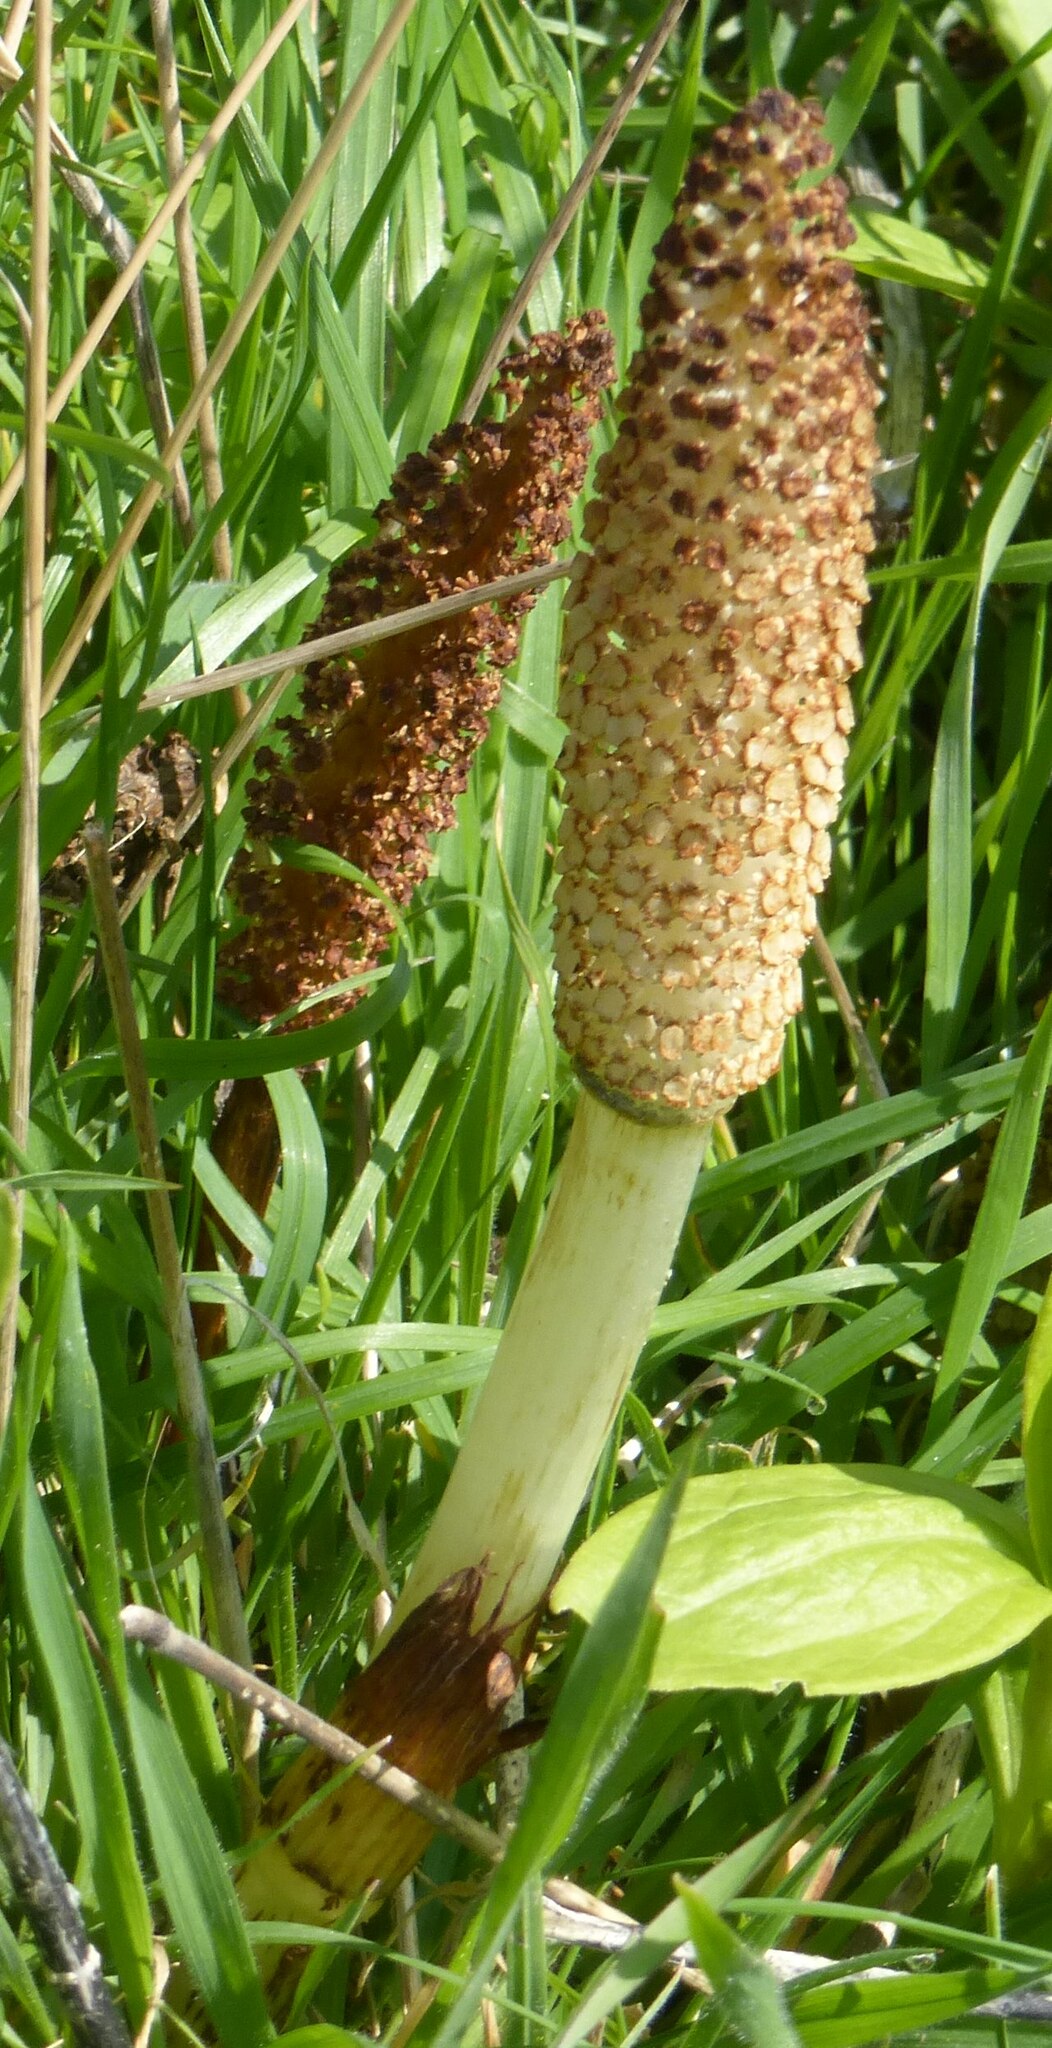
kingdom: Plantae
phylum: Tracheophyta
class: Polypodiopsida
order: Equisetales
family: Equisetaceae
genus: Equisetum
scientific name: Equisetum telmateia
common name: Great horsetail
